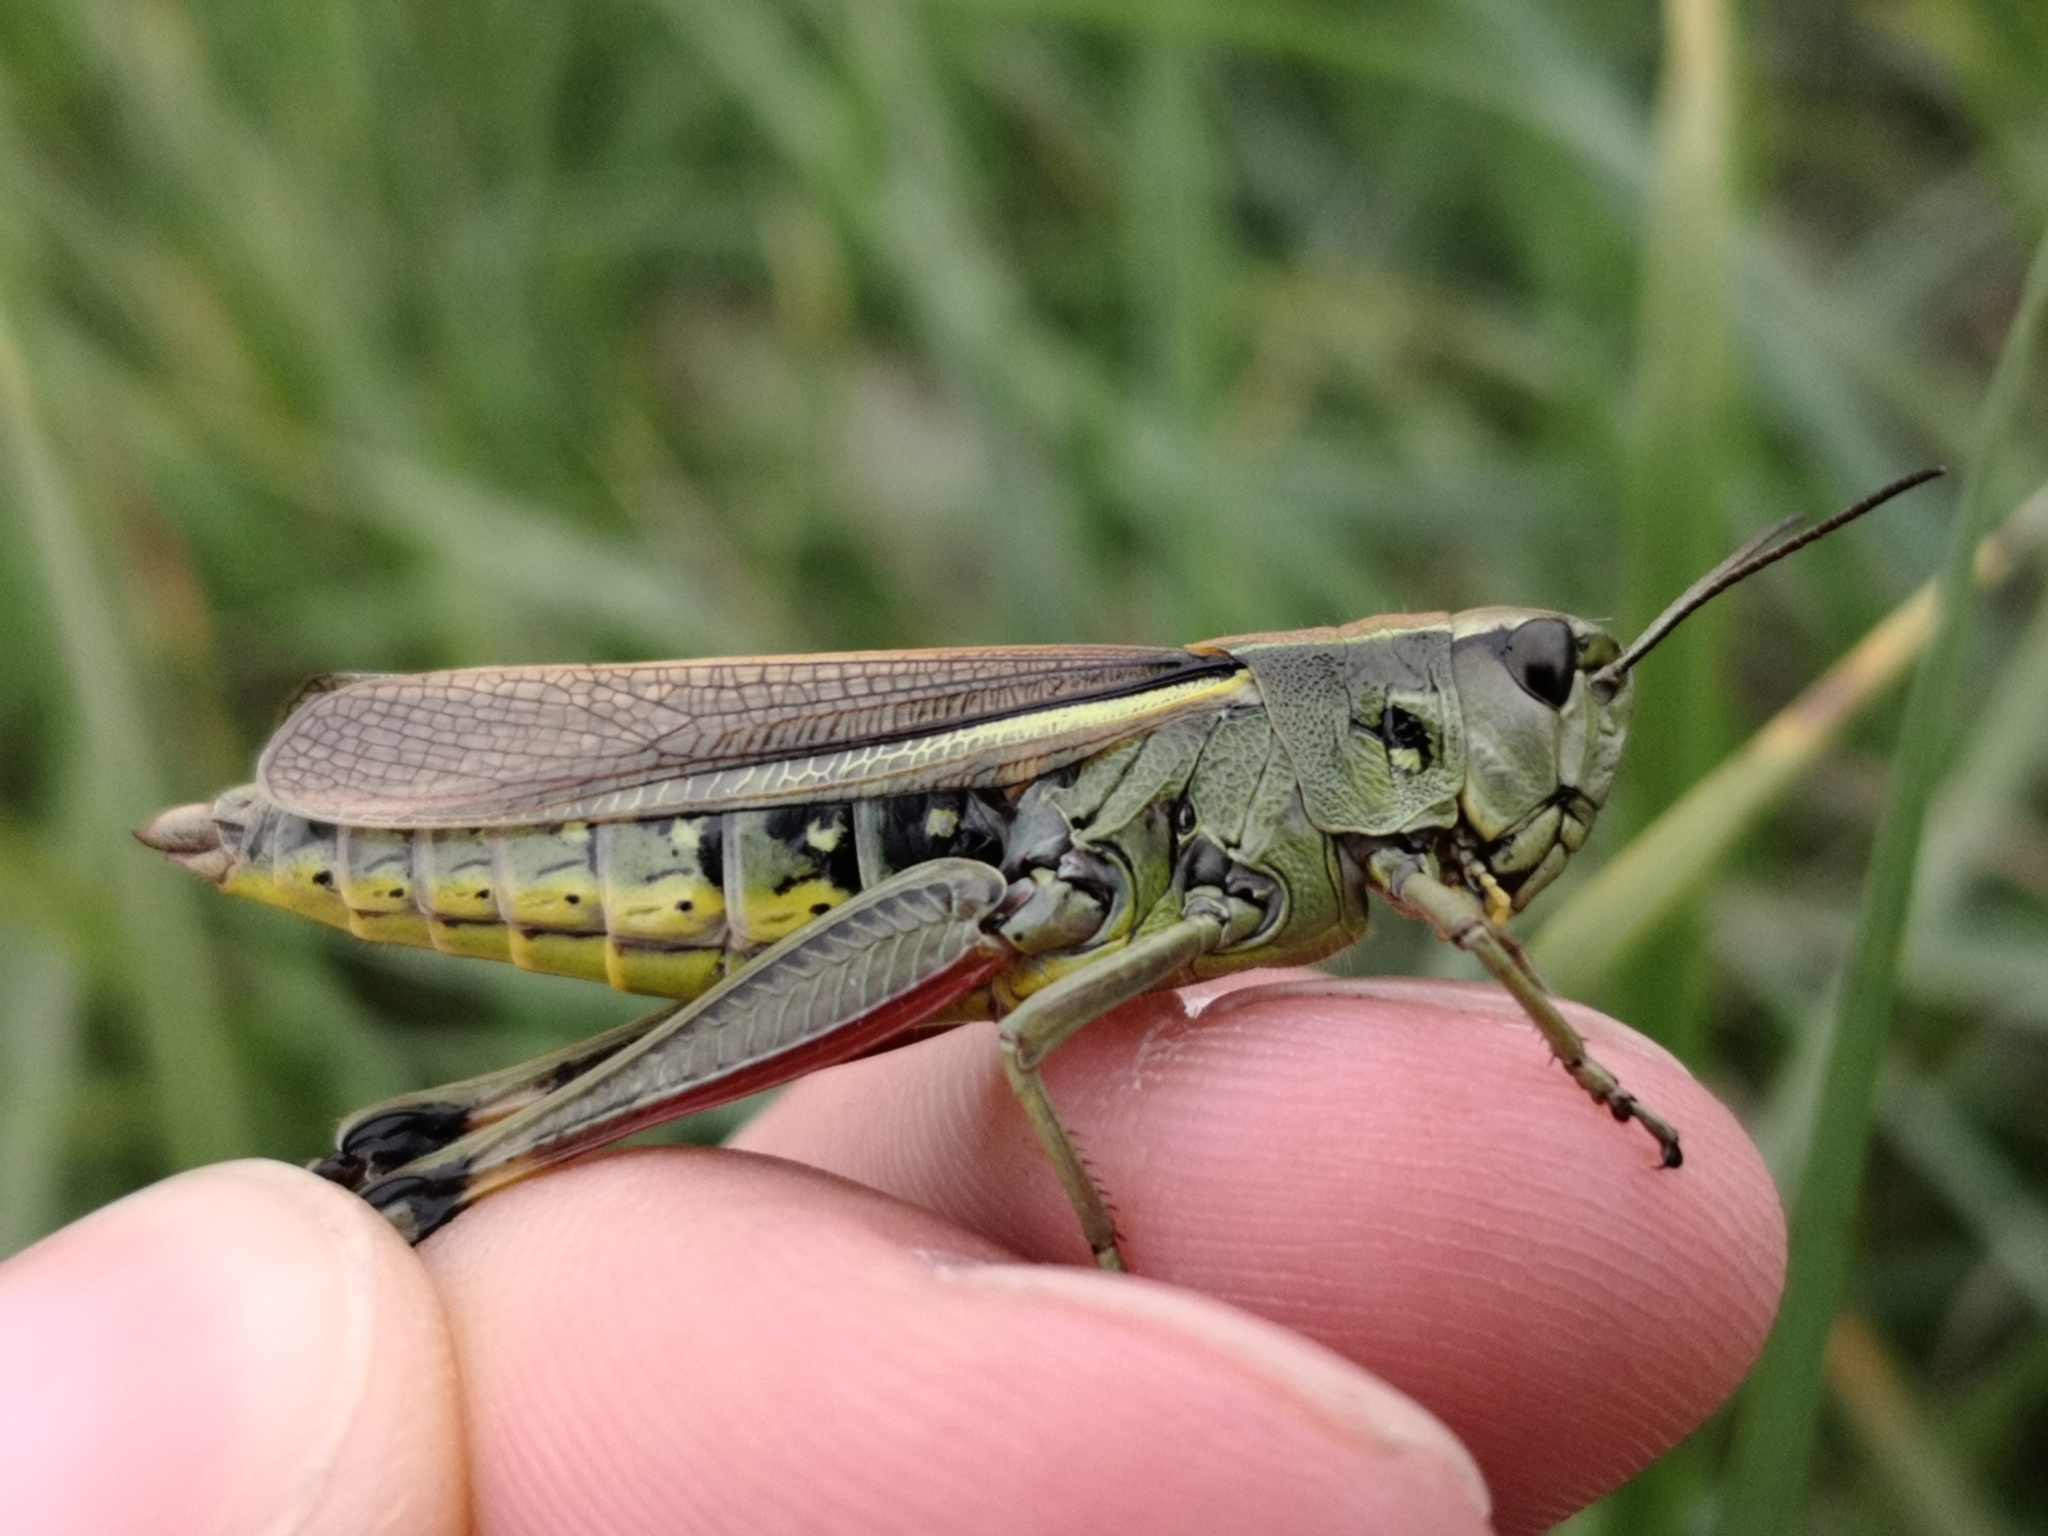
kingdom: Animalia
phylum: Arthropoda
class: Insecta
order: Orthoptera
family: Acrididae
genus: Stethophyma
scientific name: Stethophyma grossum
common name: Large marsh grasshopper
